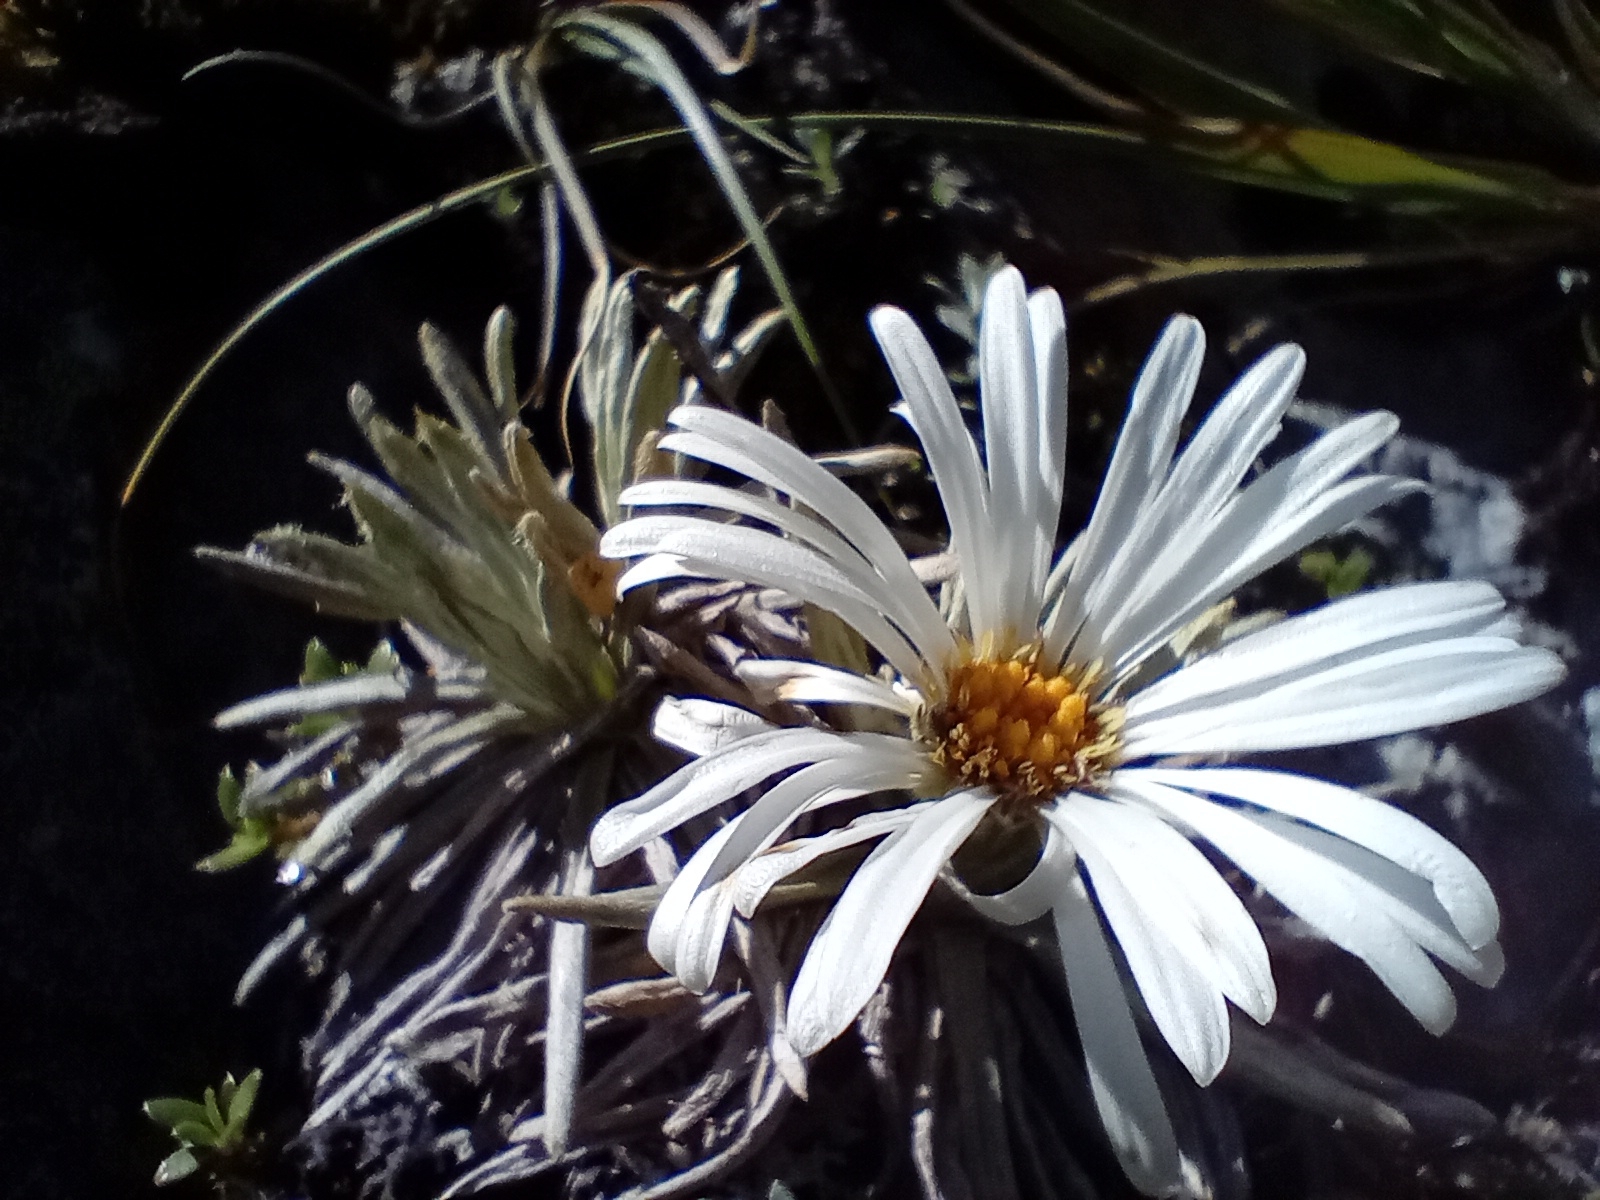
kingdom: Plantae
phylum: Tracheophyta
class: Magnoliopsida
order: Asterales
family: Asteraceae
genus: Celmisia
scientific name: Celmisia sessiliflora
